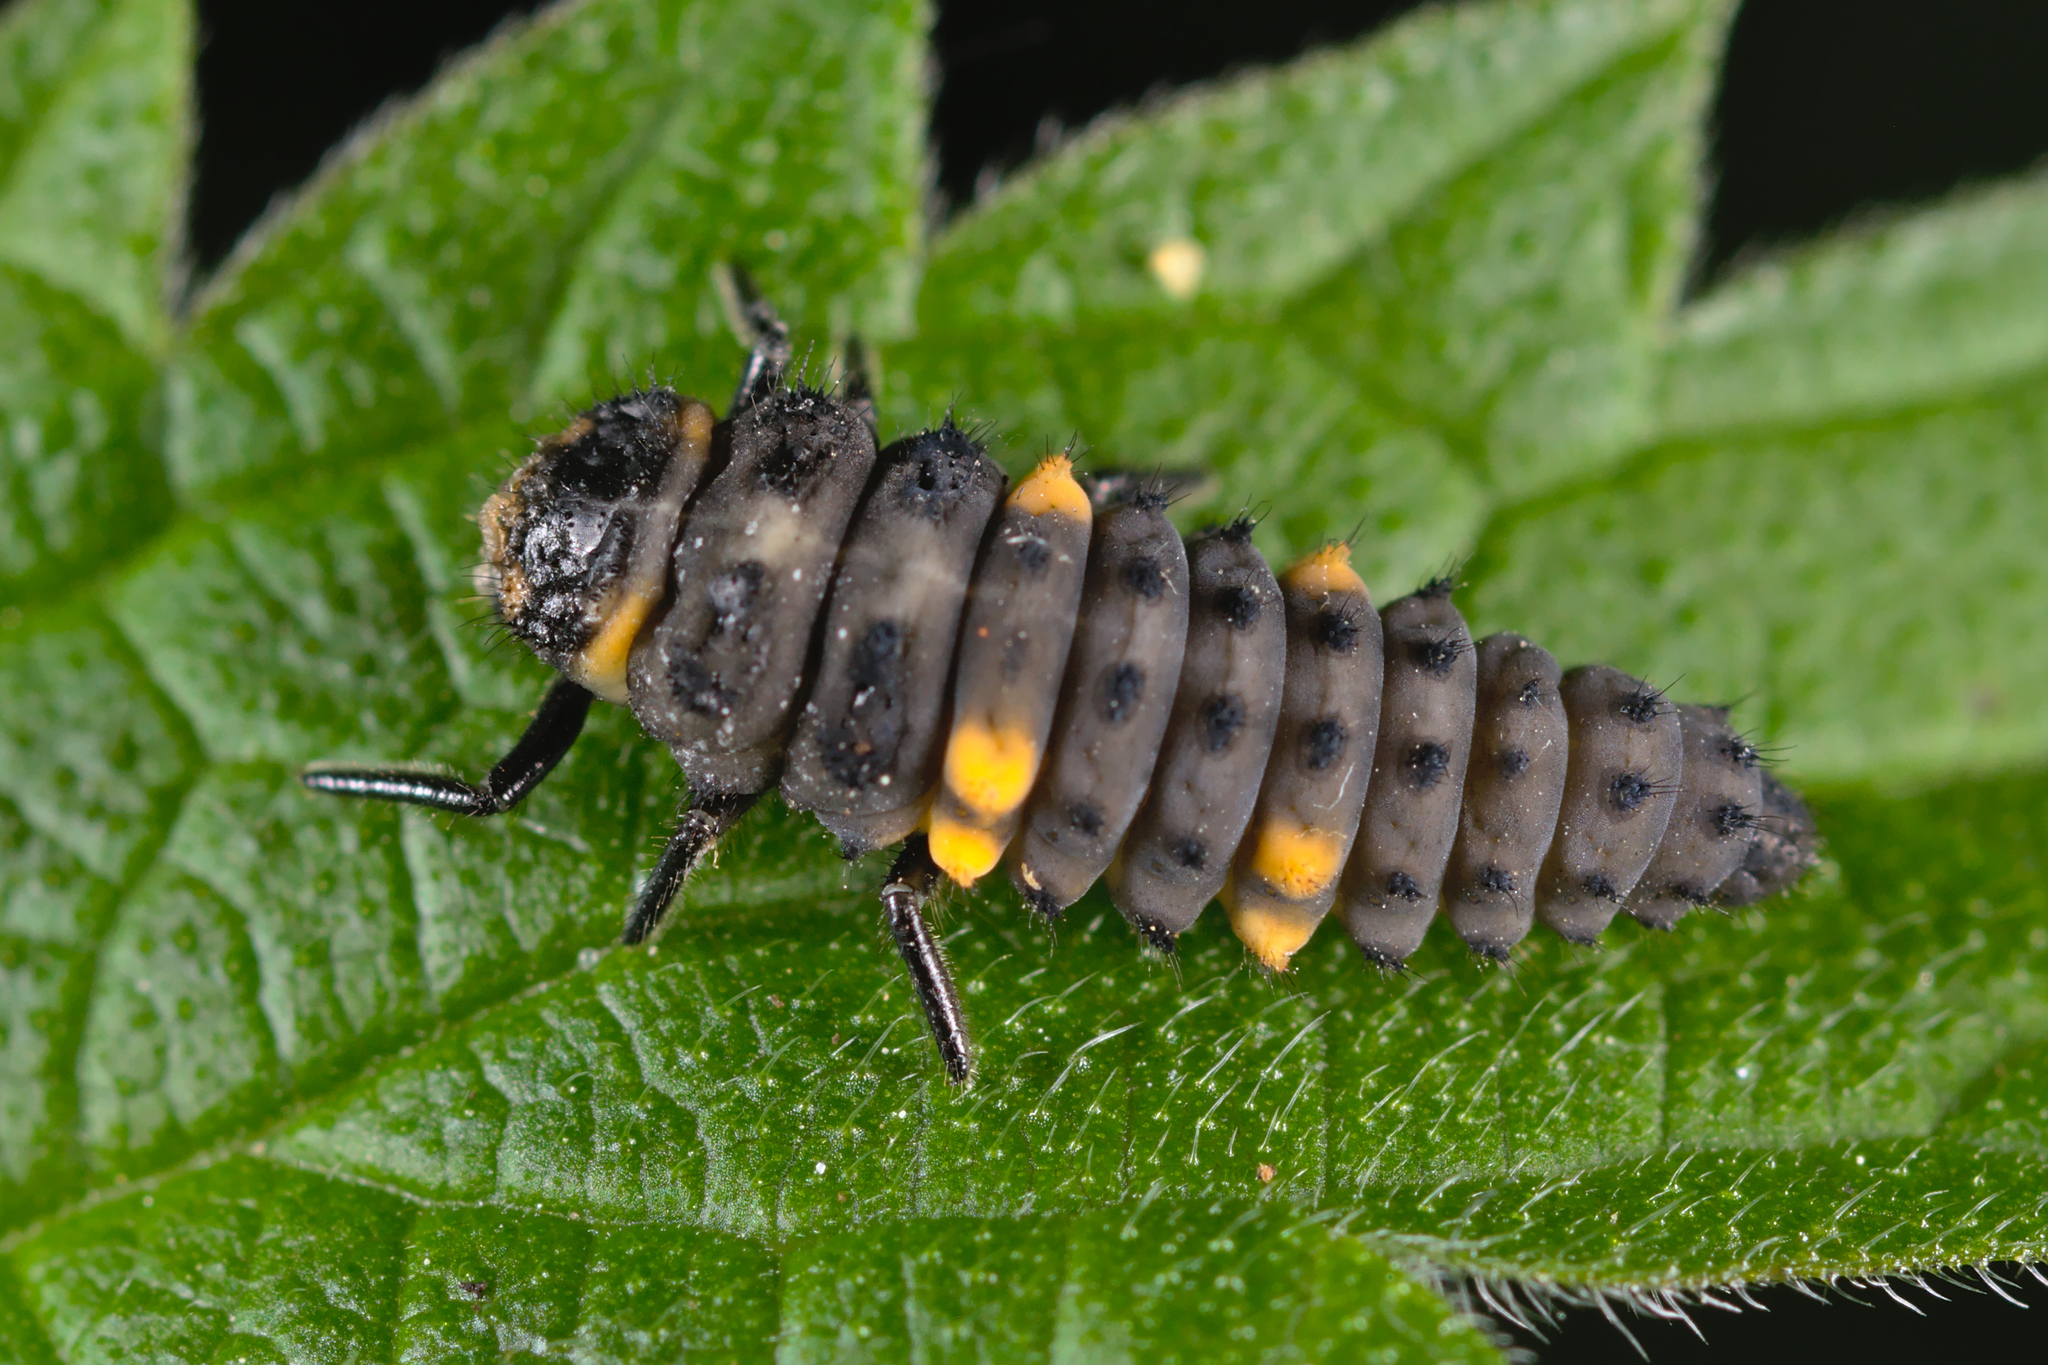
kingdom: Animalia
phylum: Arthropoda
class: Insecta
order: Coleoptera
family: Coccinellidae
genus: Coccinella
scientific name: Coccinella septempunctata
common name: Sevenspotted lady beetle
